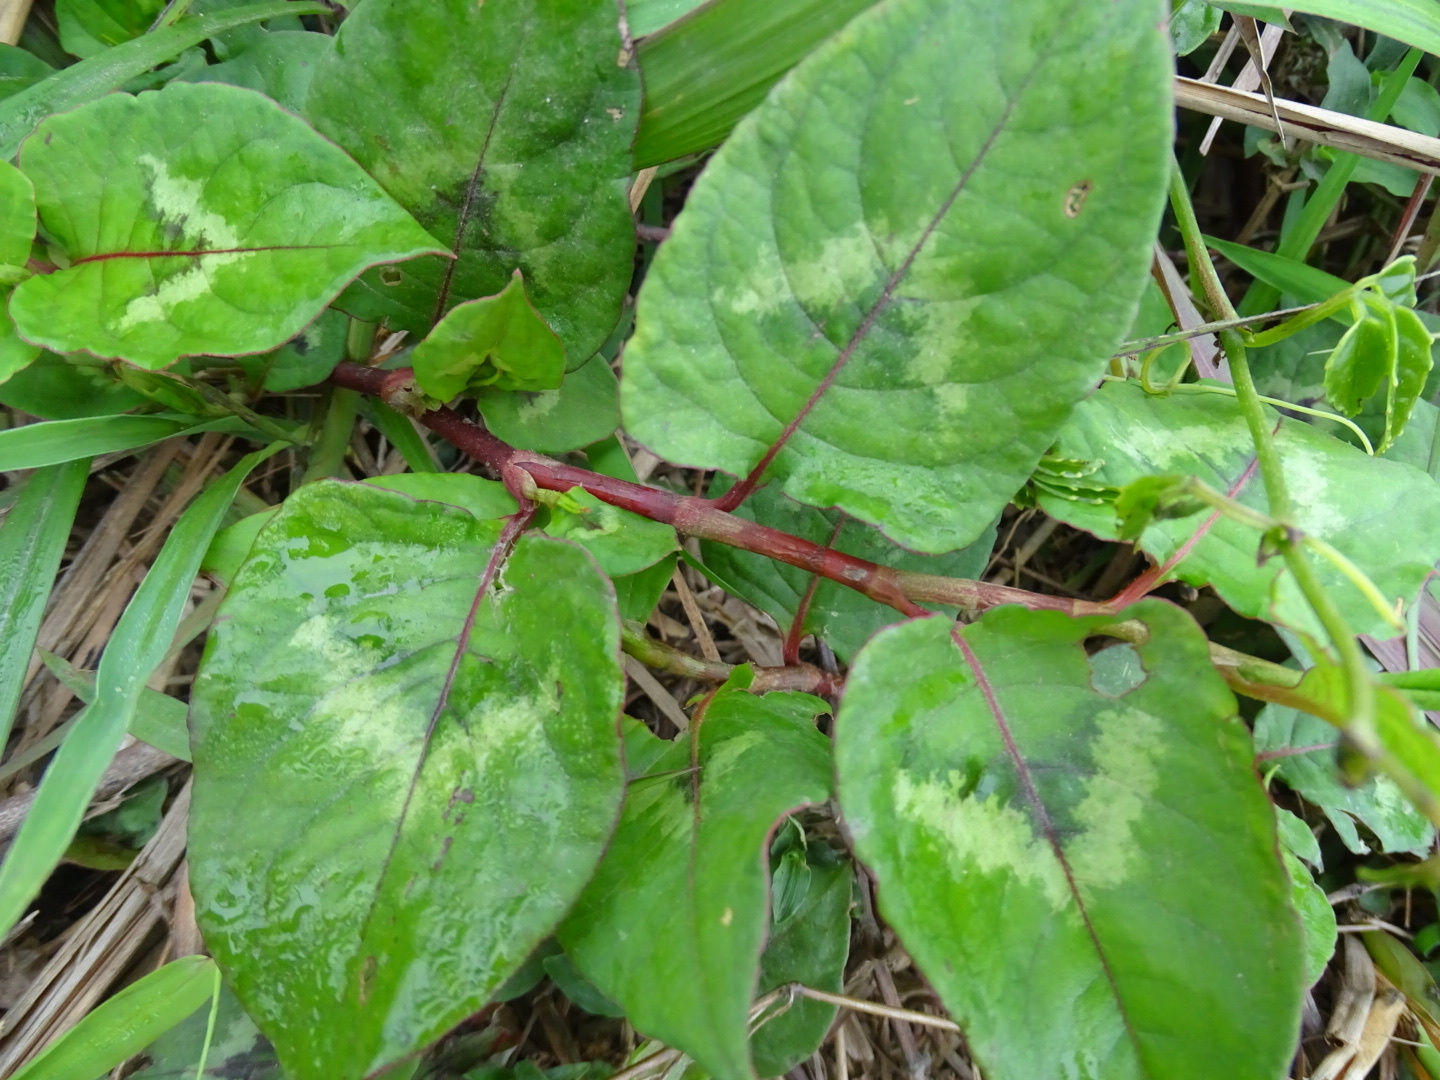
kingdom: Plantae
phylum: Tracheophyta
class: Magnoliopsida
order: Caryophyllales
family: Polygonaceae
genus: Persicaria
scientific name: Persicaria chinensis
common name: Chinese knotweed
